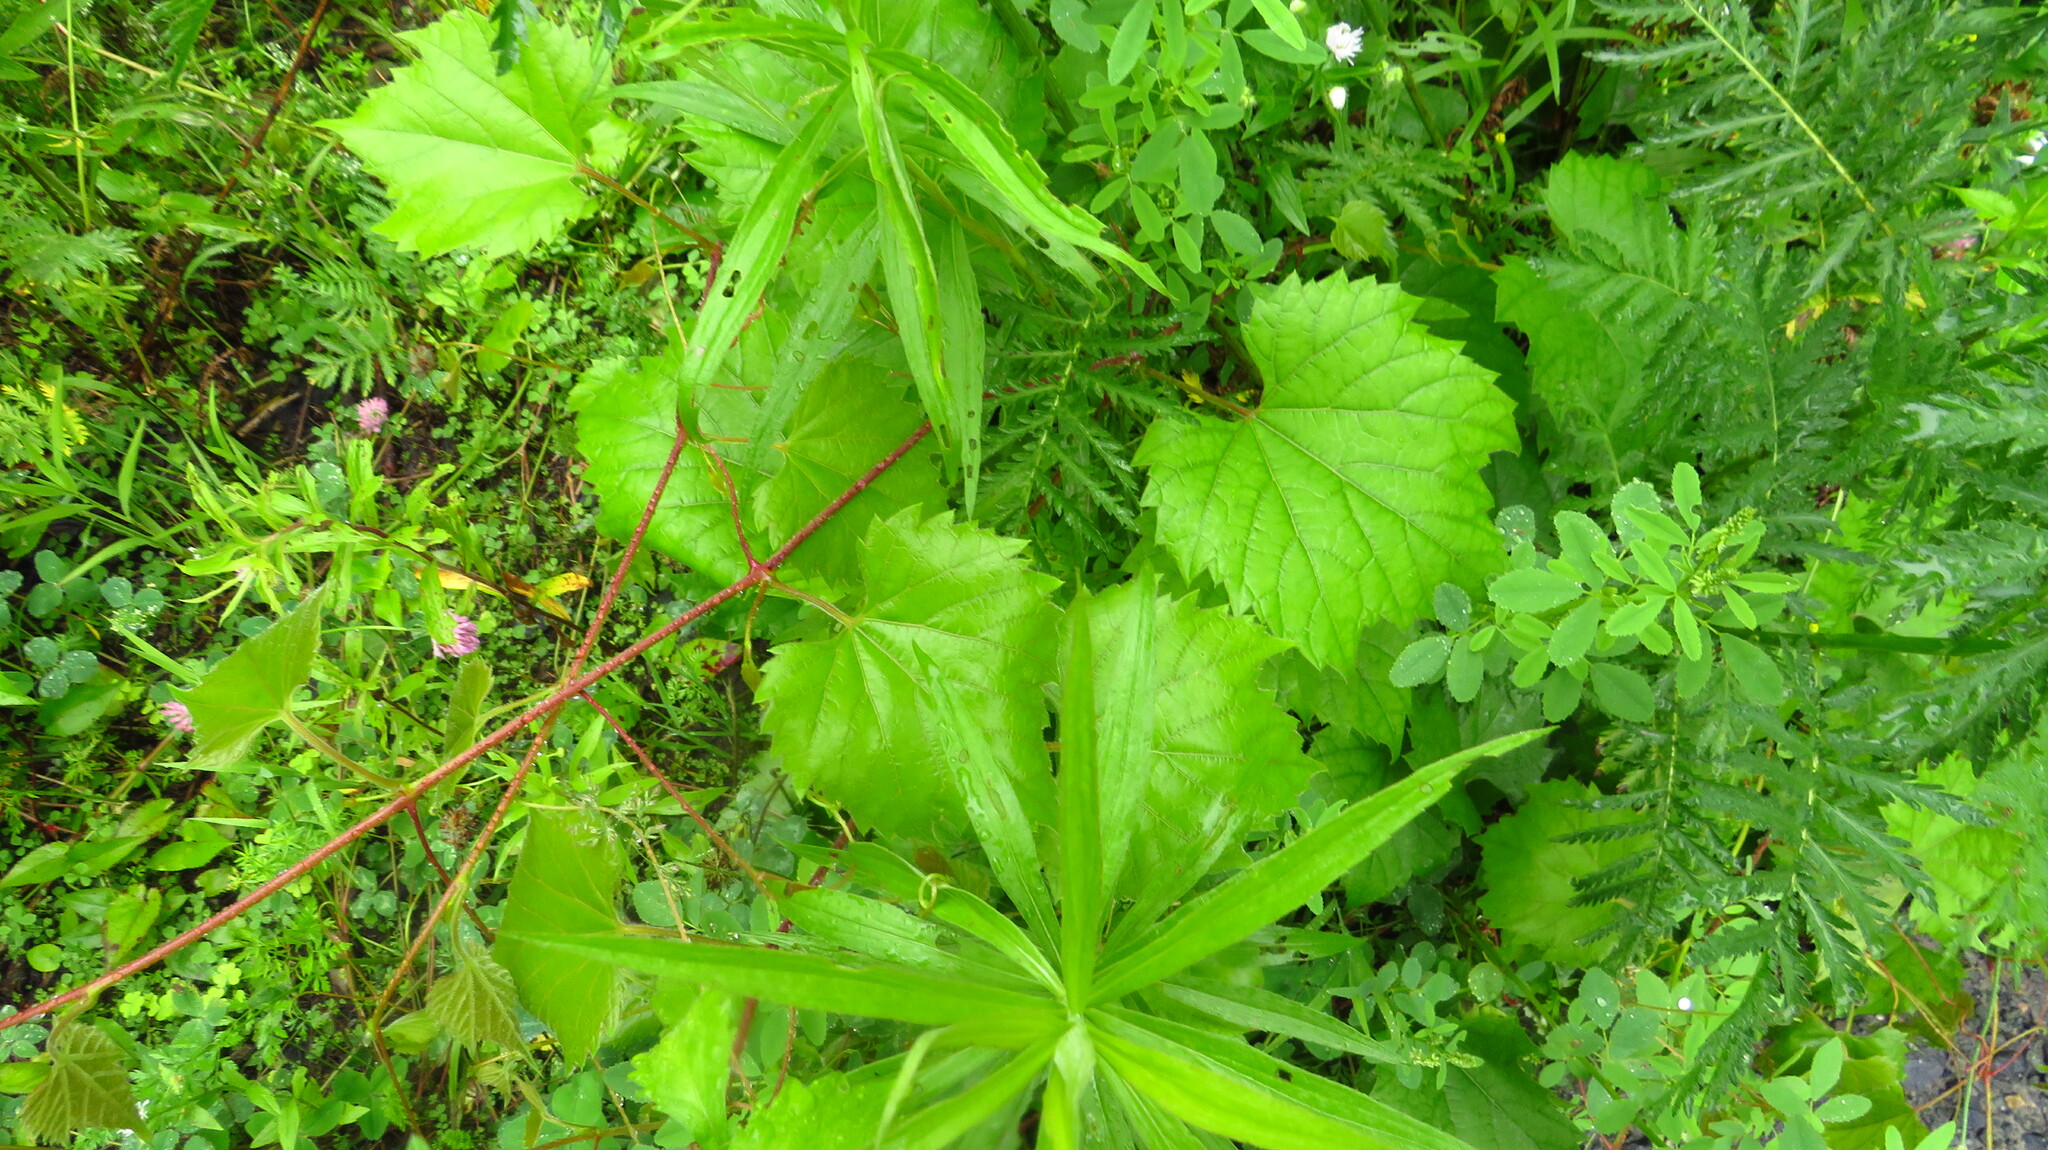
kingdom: Plantae
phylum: Tracheophyta
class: Magnoliopsida
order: Vitales
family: Vitaceae
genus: Vitis
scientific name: Vitis riparia
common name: Frost grape
